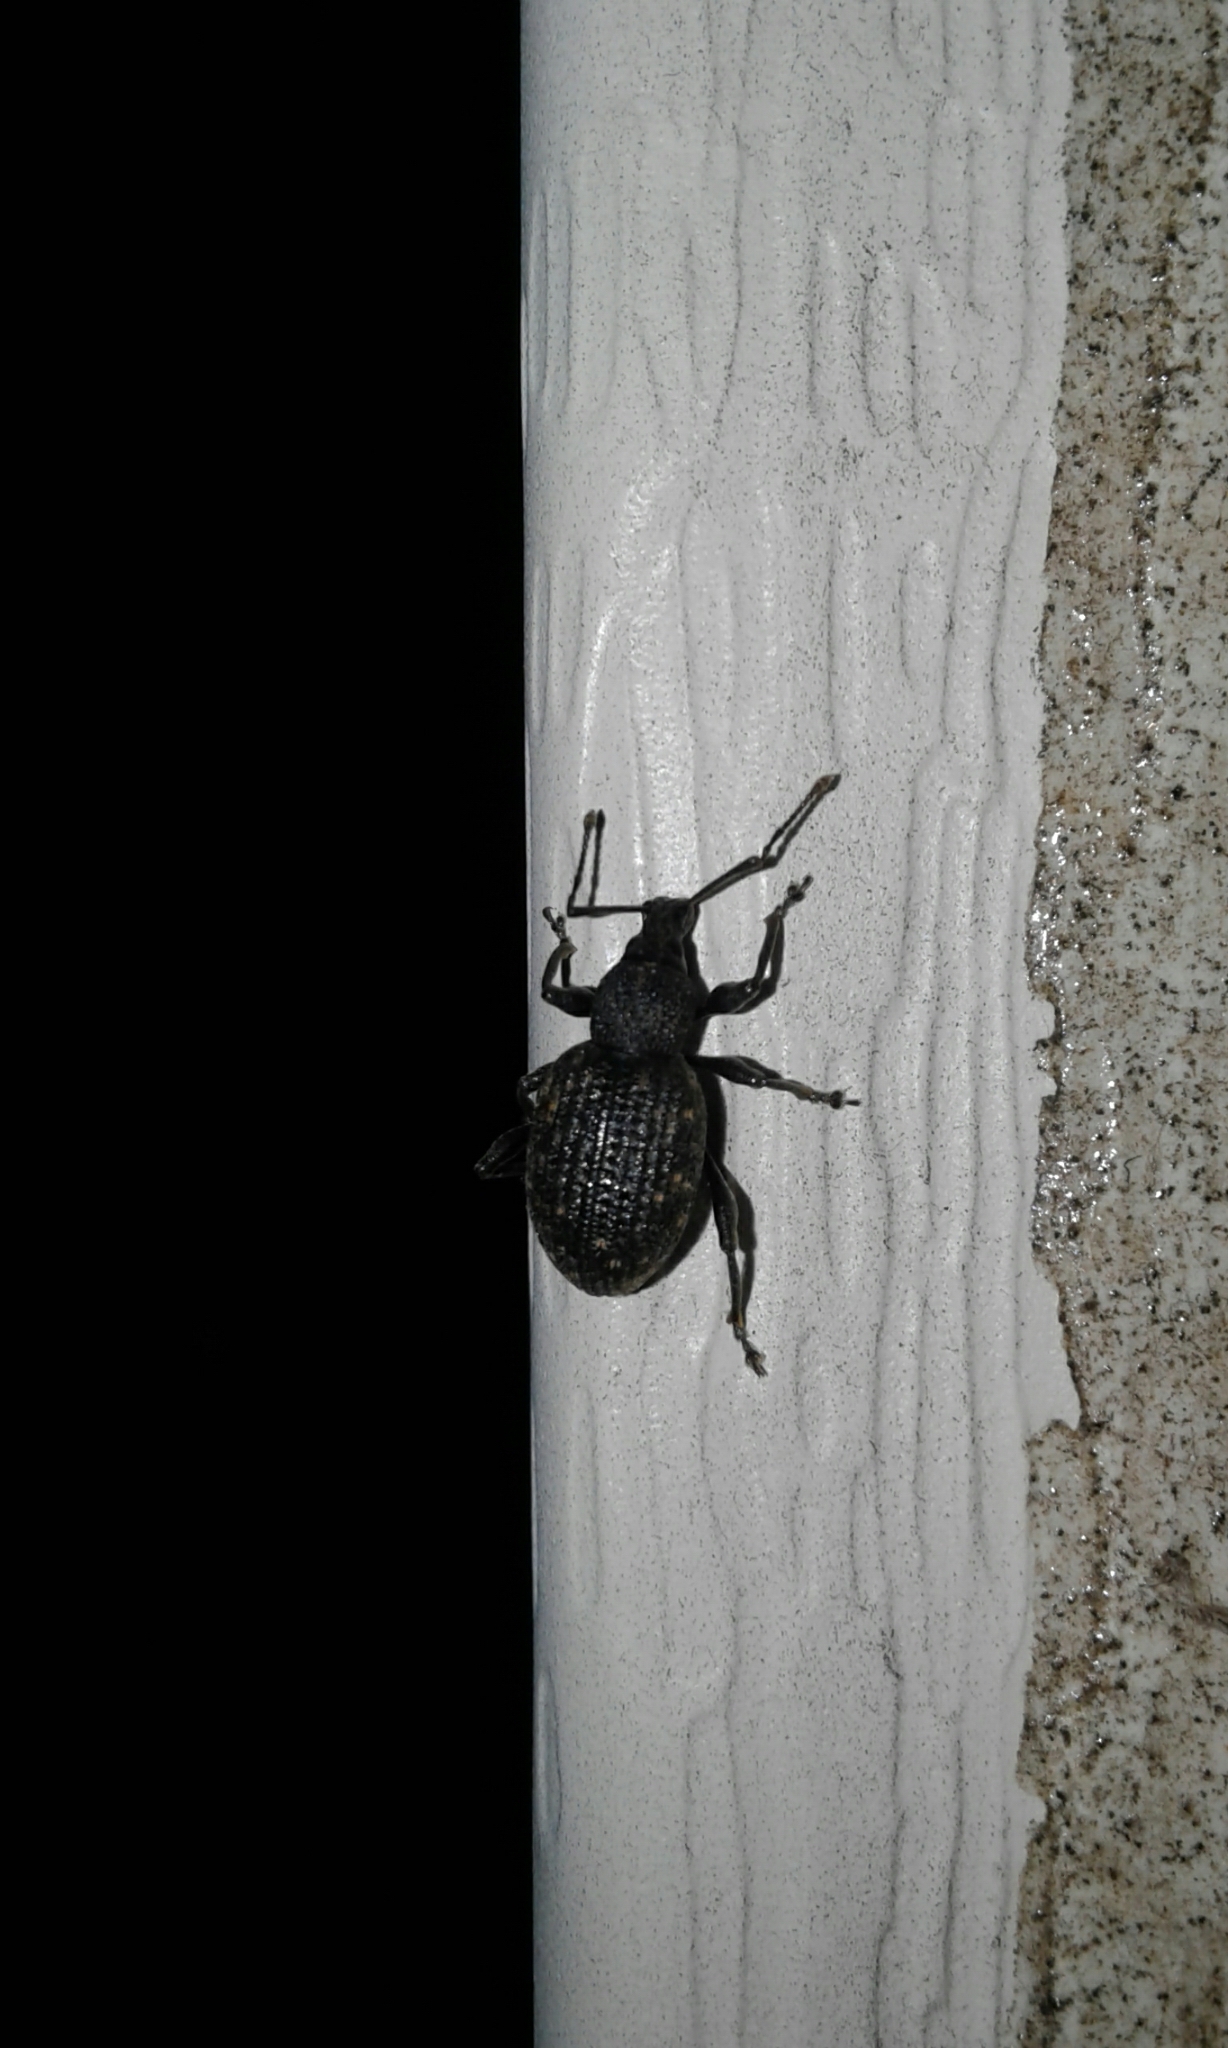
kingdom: Animalia
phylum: Arthropoda
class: Insecta
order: Coleoptera
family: Curculionidae
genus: Otiorhynchus
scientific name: Otiorhynchus sulcatus
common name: Black vine weevil
